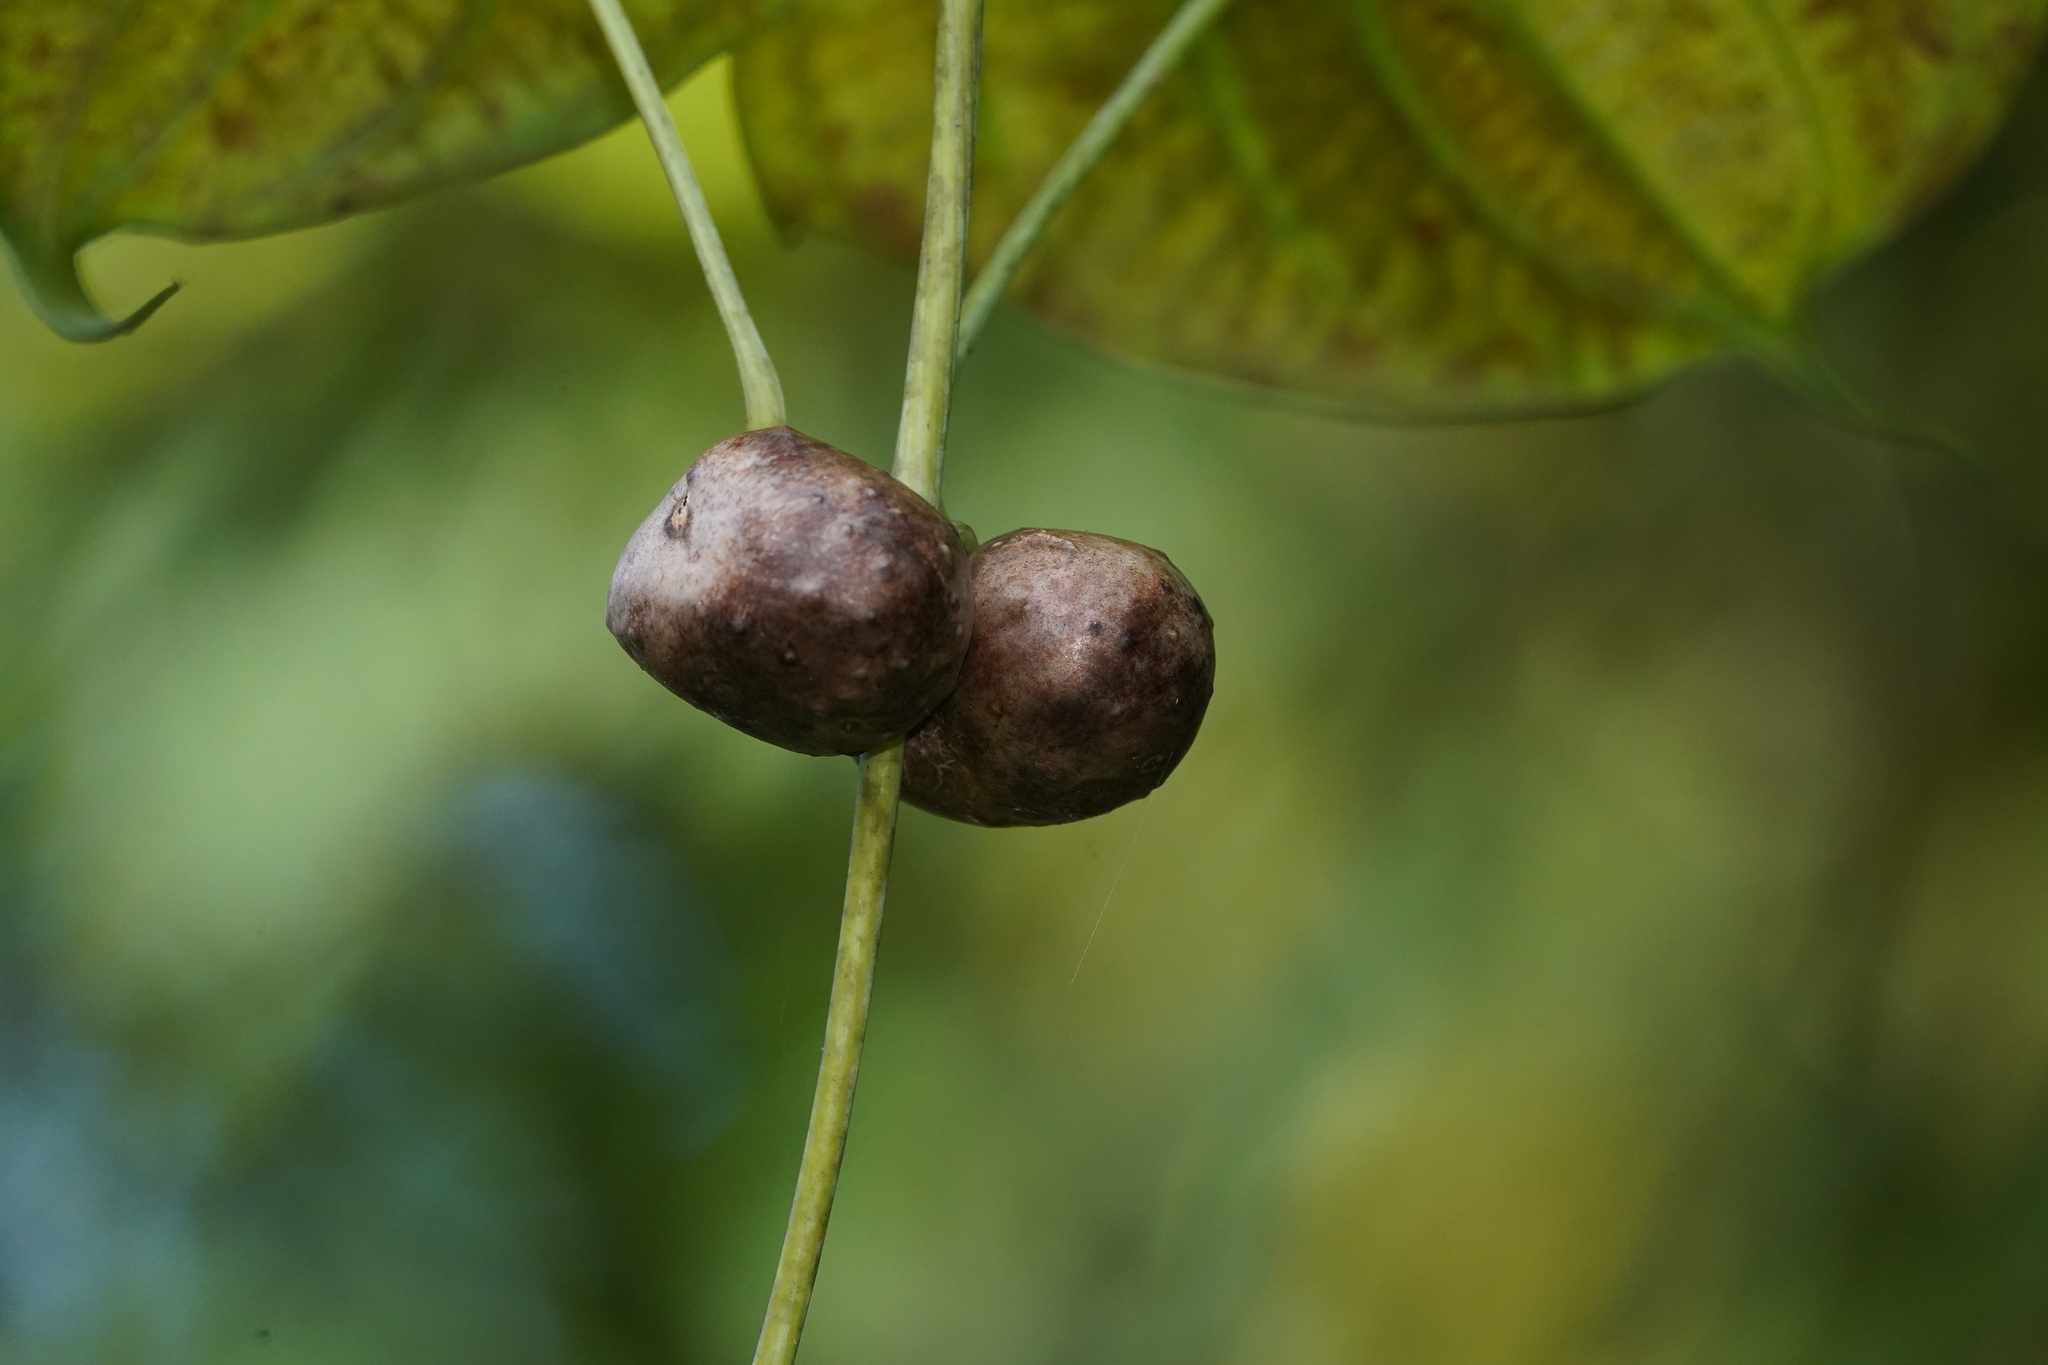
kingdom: Plantae
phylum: Tracheophyta
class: Liliopsida
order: Dioscoreales
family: Dioscoreaceae
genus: Dioscorea
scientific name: Dioscorea sansibarensis
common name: Zanzibar yam
